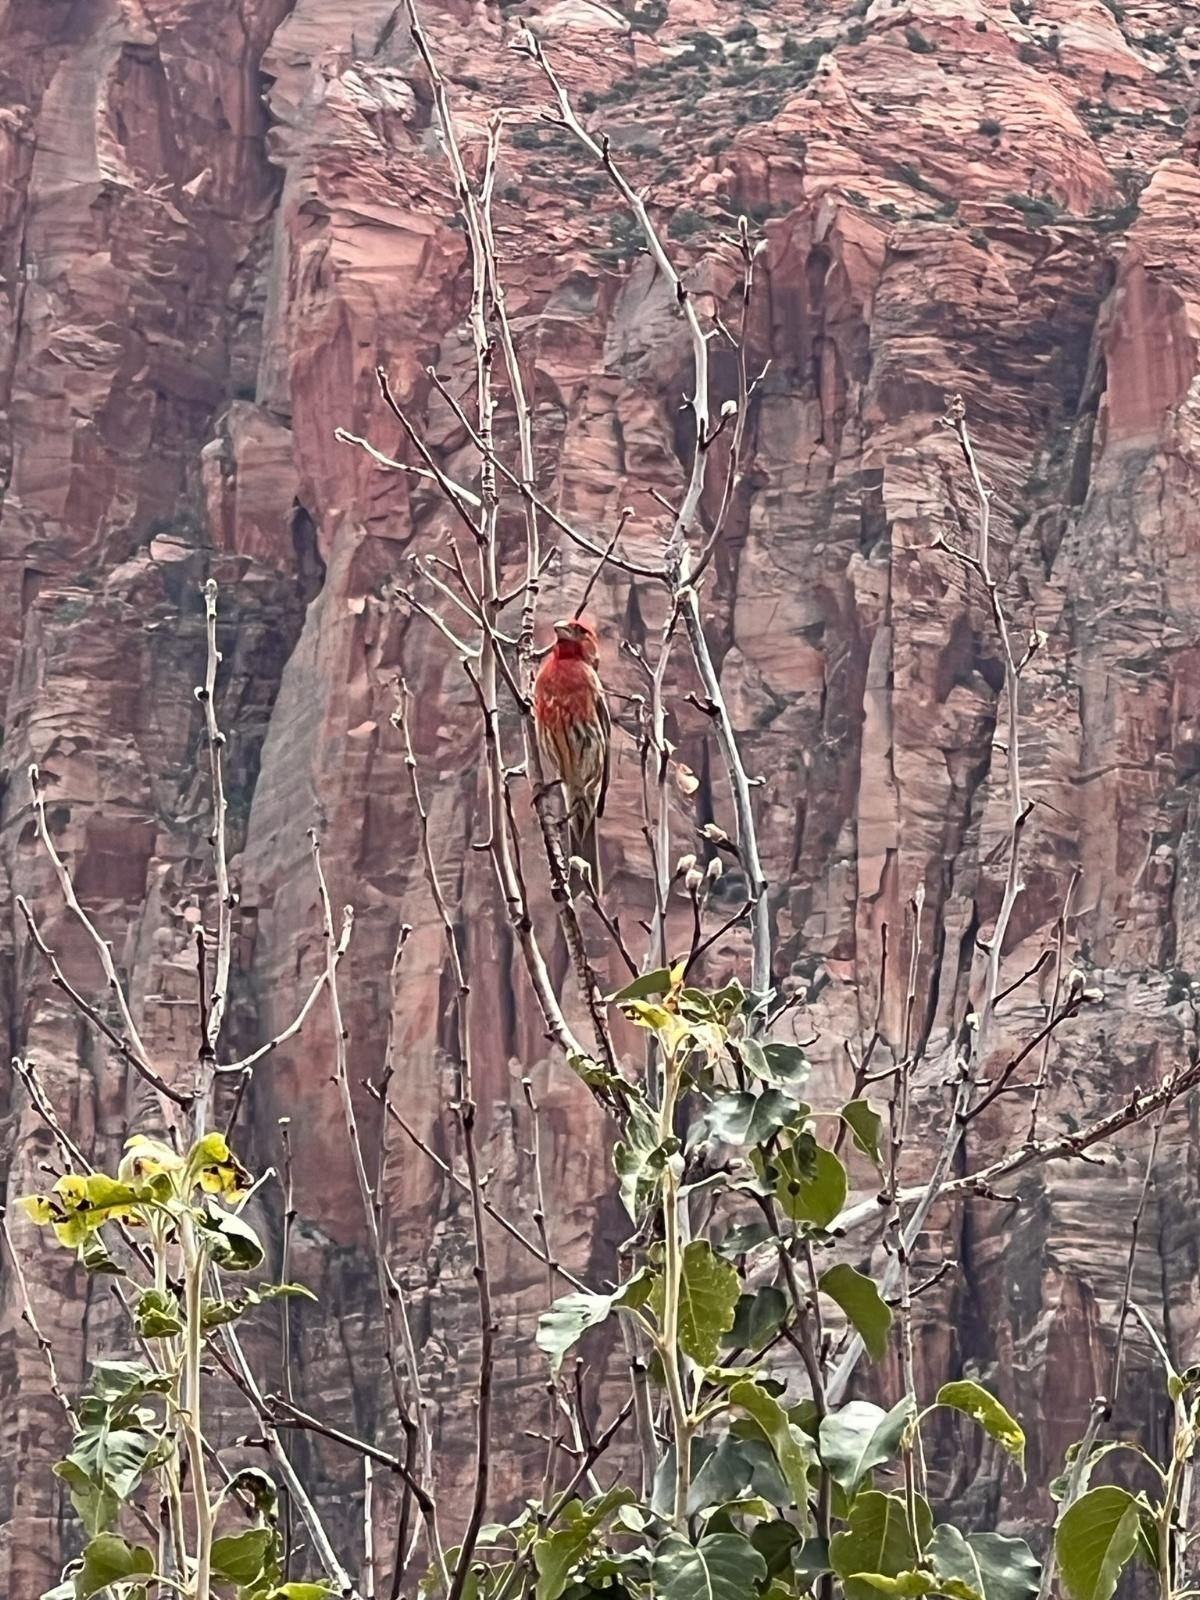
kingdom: Animalia
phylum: Chordata
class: Aves
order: Passeriformes
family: Fringillidae
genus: Haemorhous
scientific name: Haemorhous mexicanus
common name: House finch
